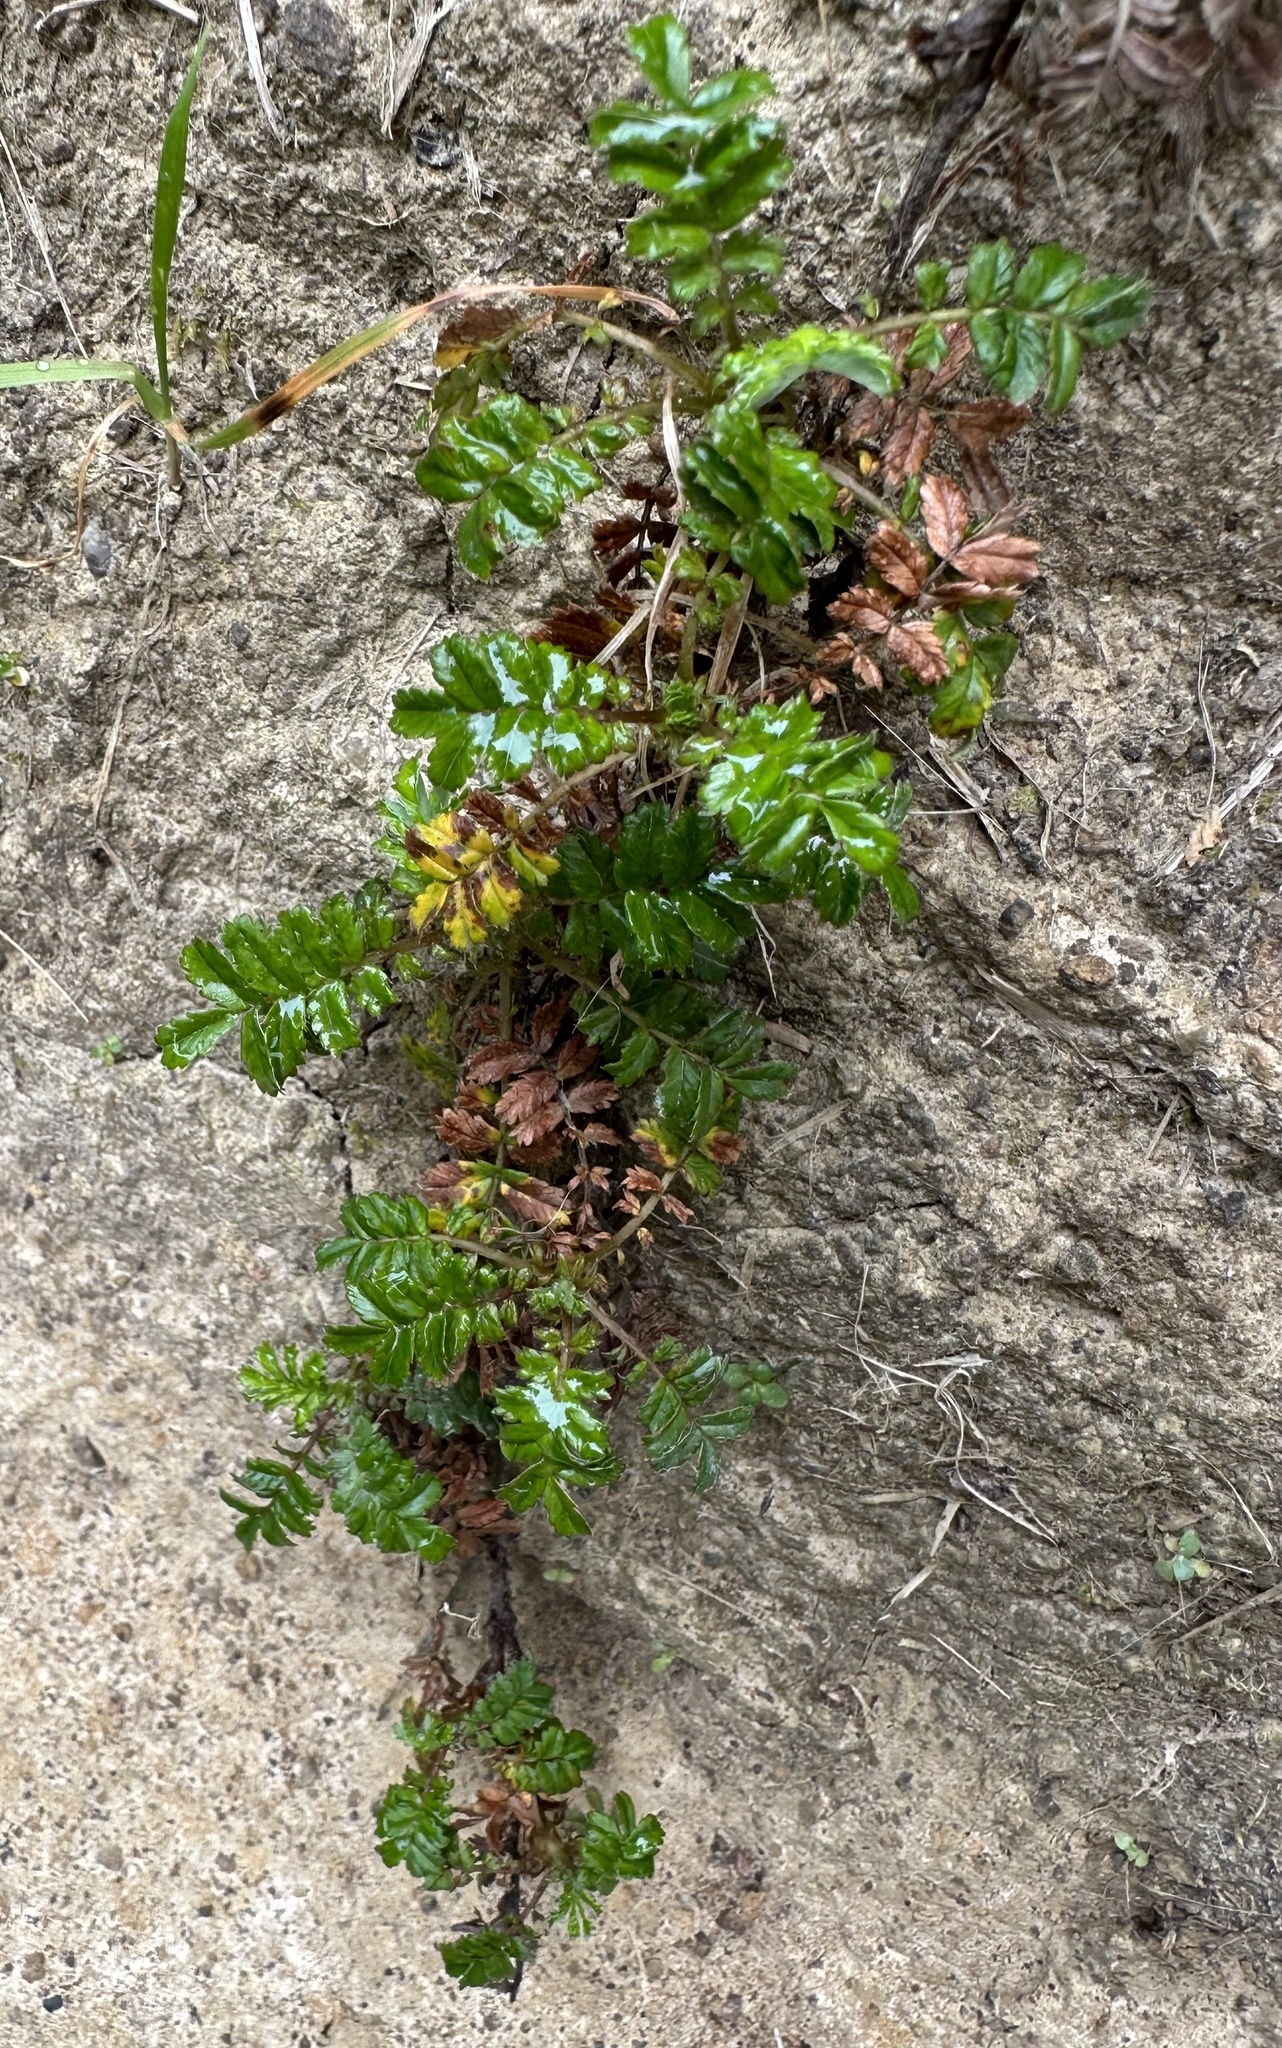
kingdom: Plantae
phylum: Tracheophyta
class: Magnoliopsida
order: Rosales
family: Rosaceae
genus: Acaena
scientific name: Acaena novae-zelandiae
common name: Pirri-pirri-bur
